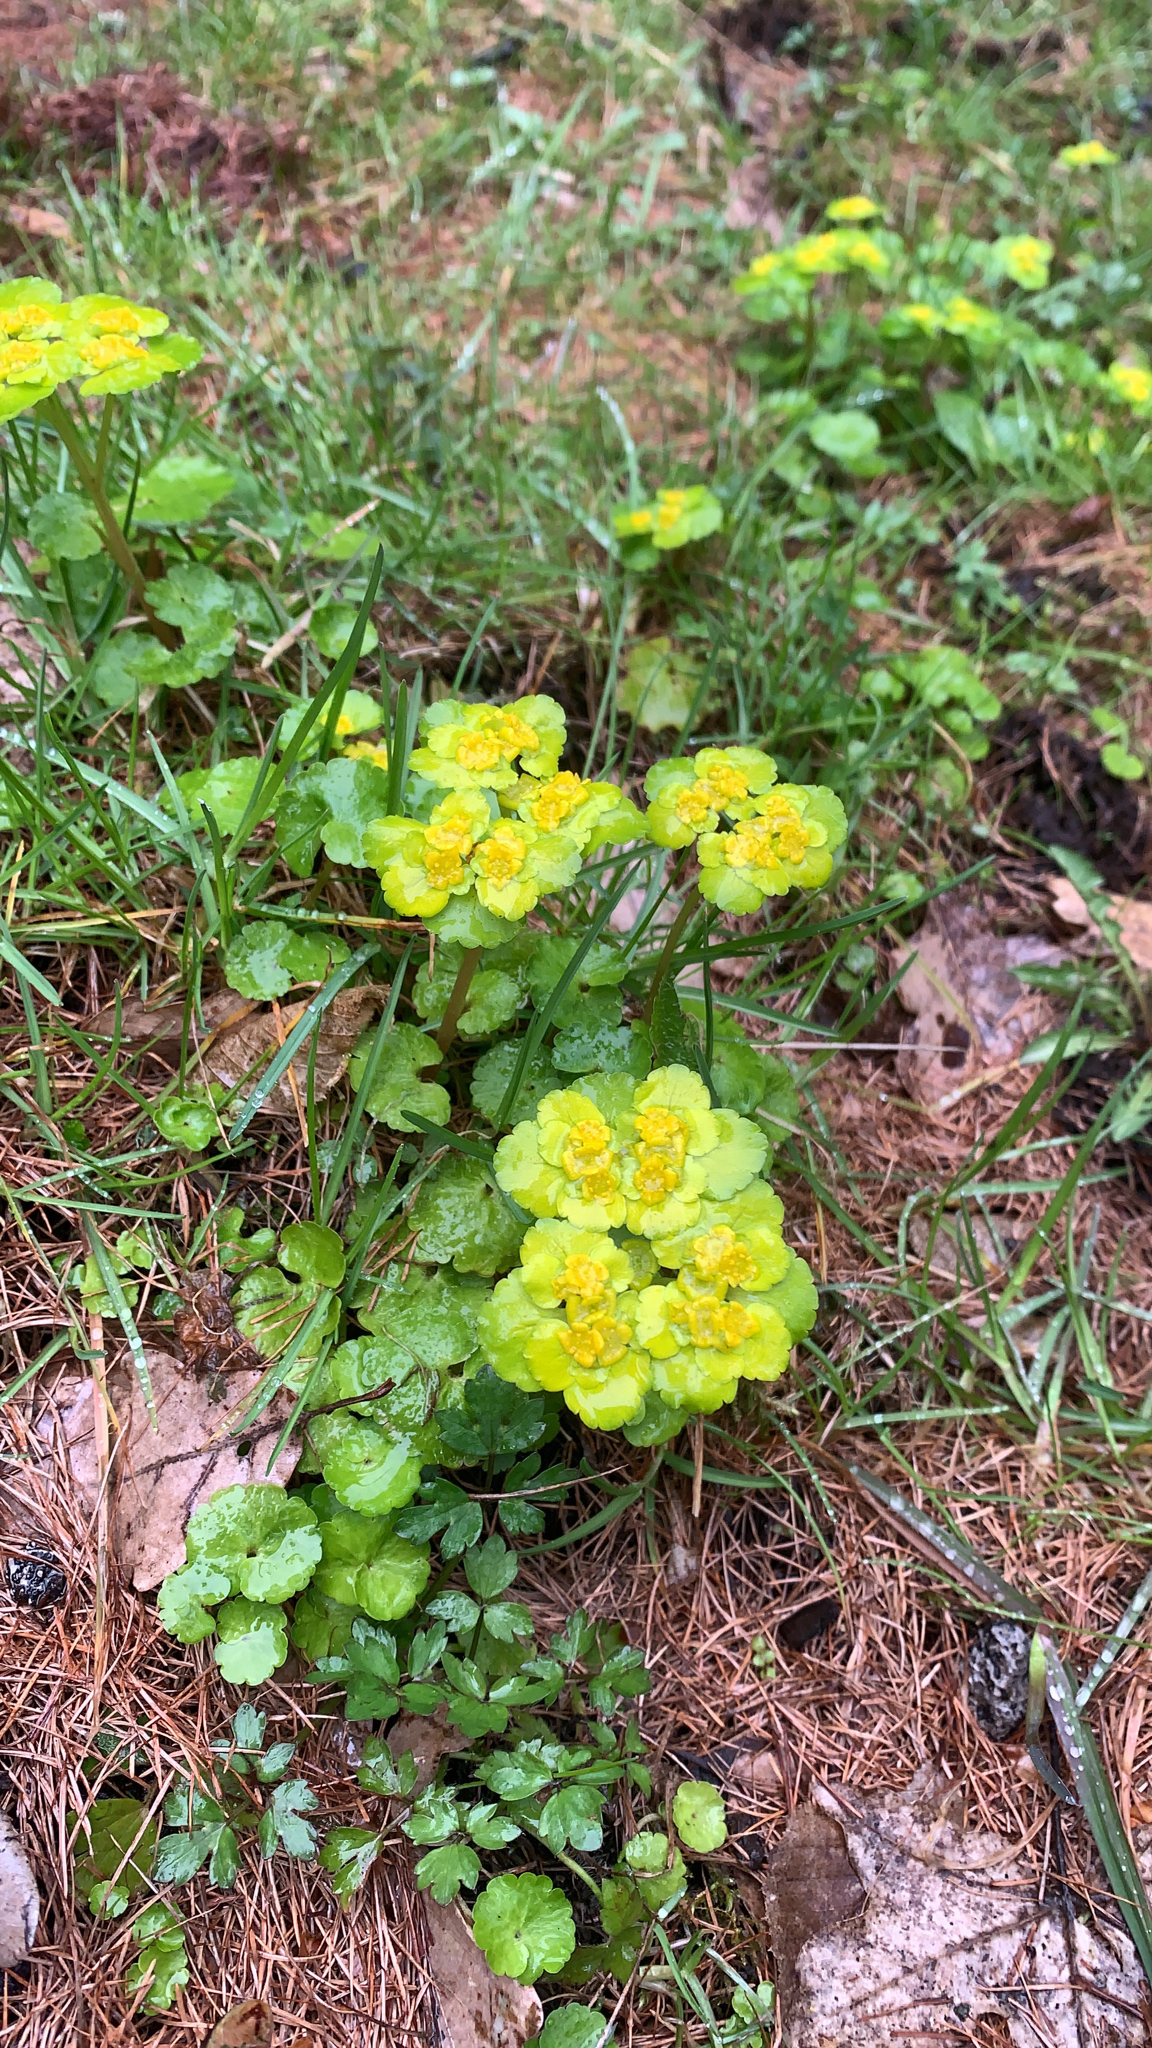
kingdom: Plantae
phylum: Tracheophyta
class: Magnoliopsida
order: Saxifragales
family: Saxifragaceae
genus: Chrysosplenium
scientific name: Chrysosplenium alternifolium
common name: Alternate-leaved golden-saxifrage
